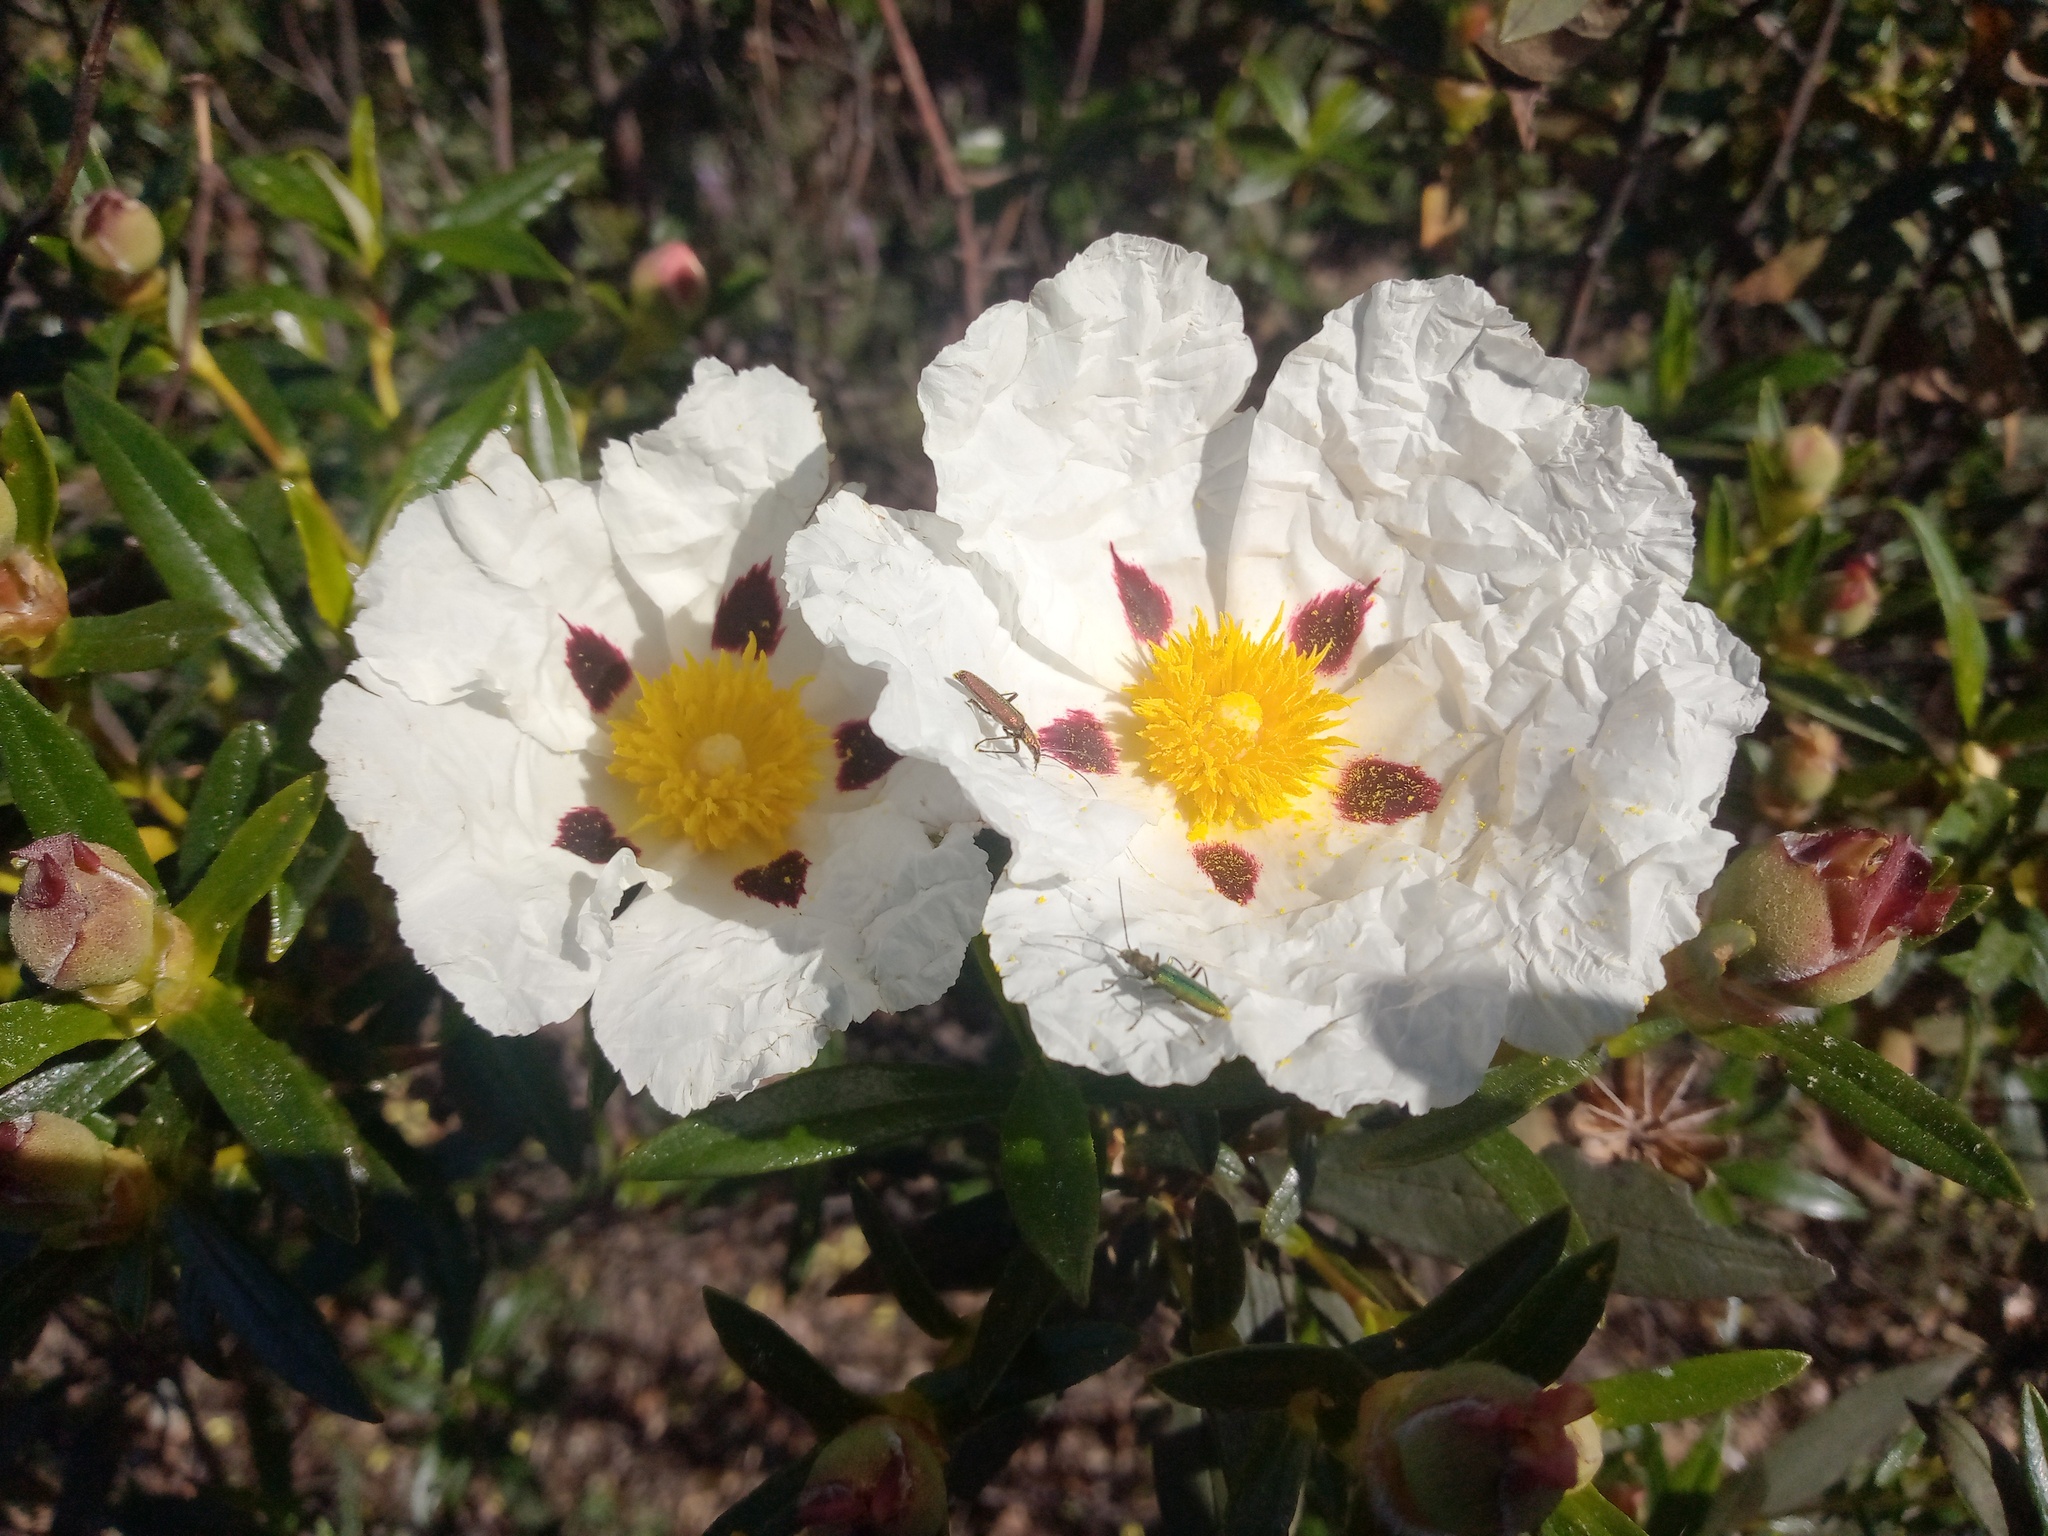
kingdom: Plantae
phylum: Tracheophyta
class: Magnoliopsida
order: Malvales
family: Cistaceae
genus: Cistus
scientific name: Cistus ladanifer
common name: Common gum cistus
